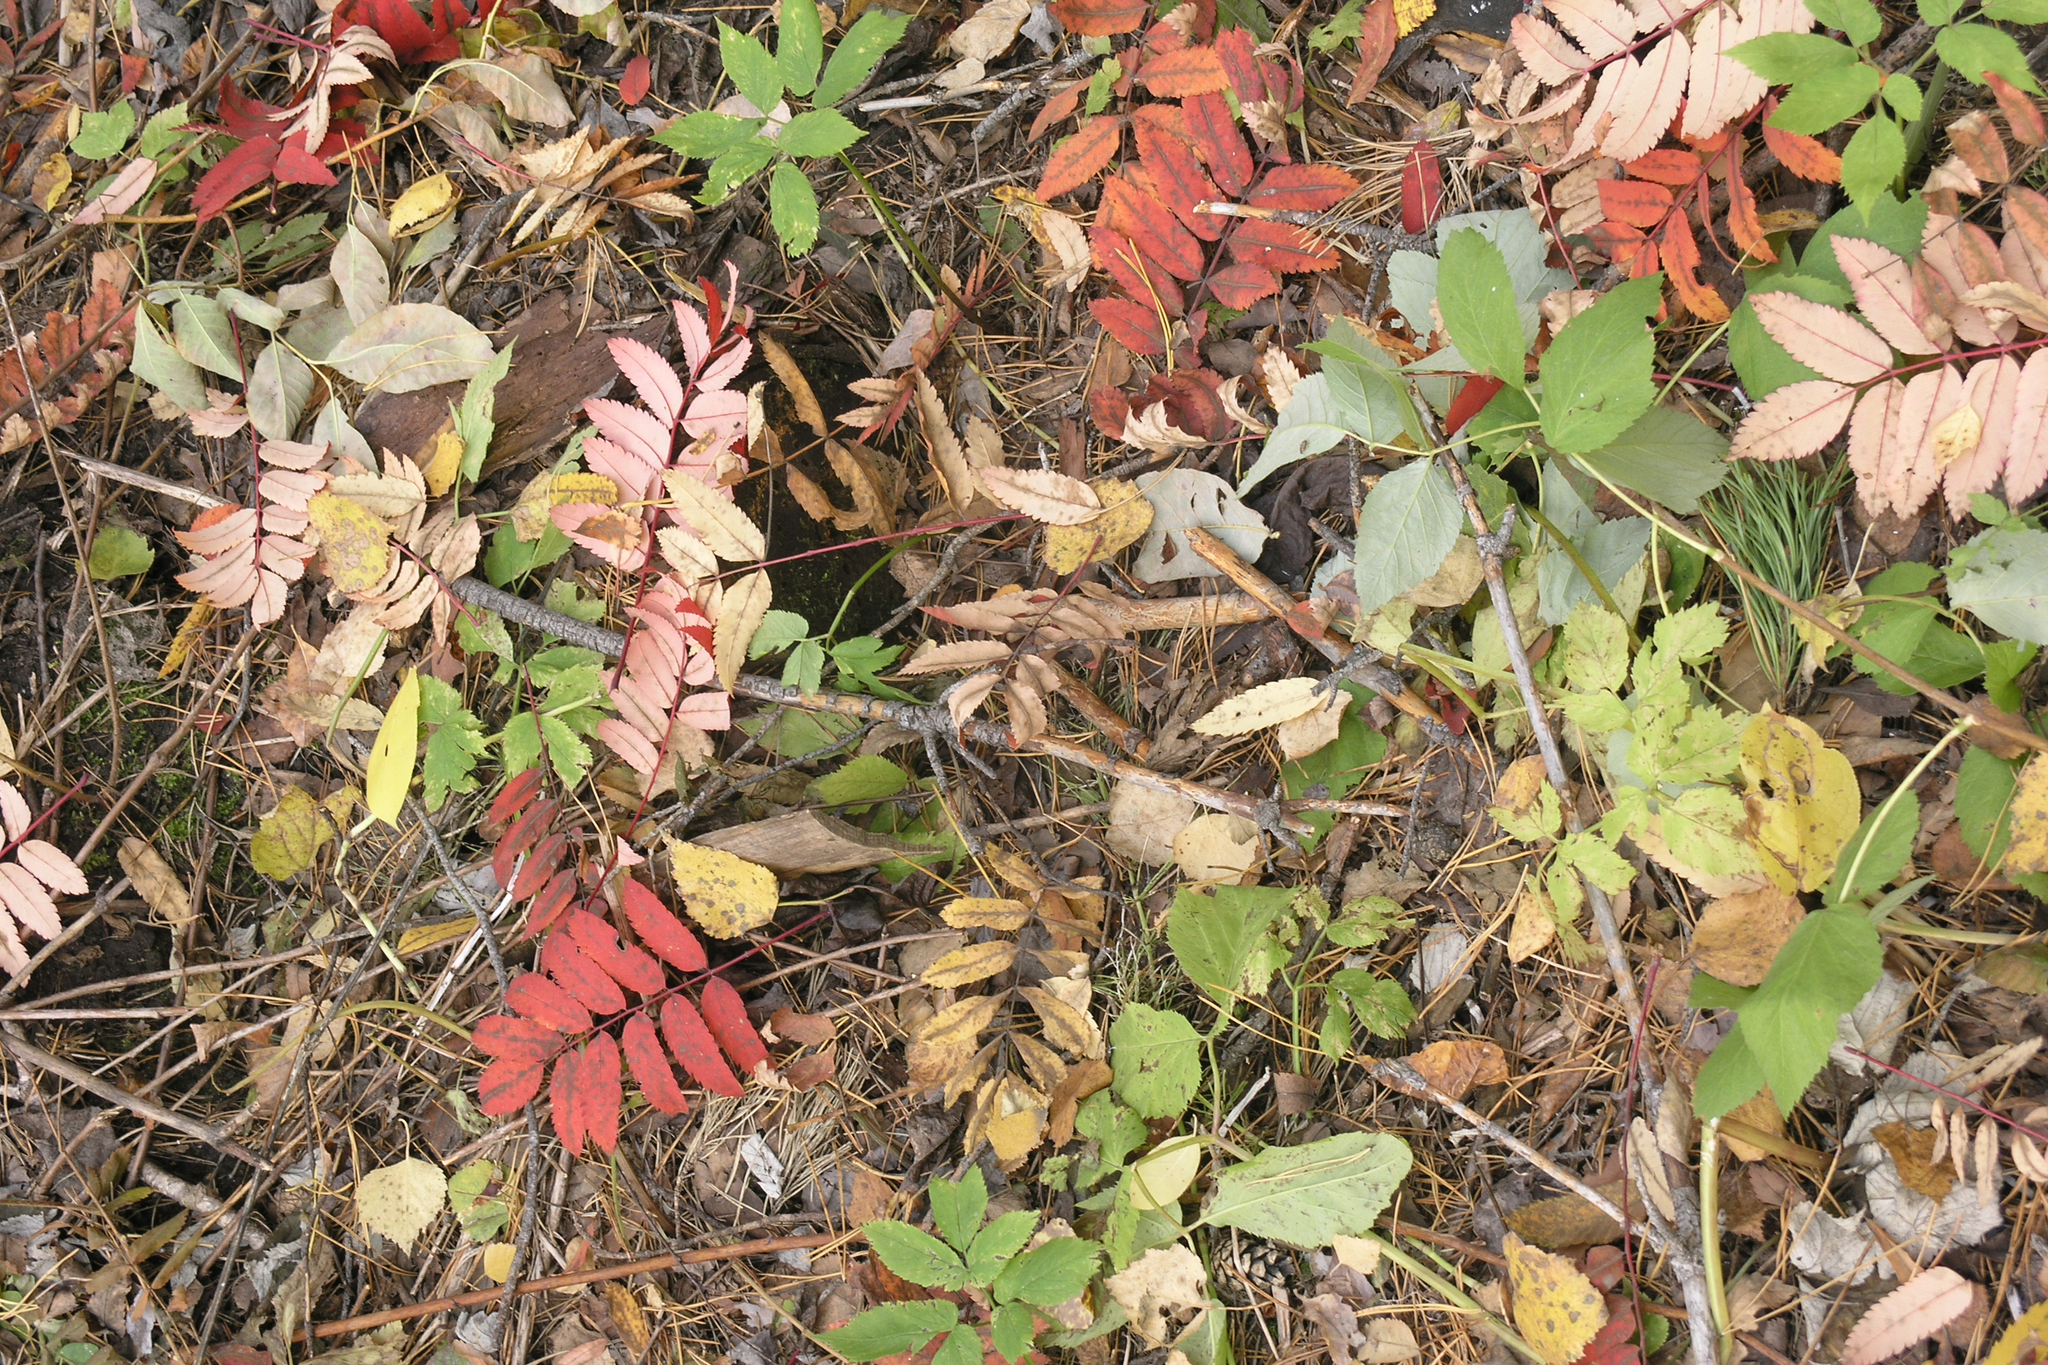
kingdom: Plantae
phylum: Tracheophyta
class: Magnoliopsida
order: Rosales
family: Rosaceae
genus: Sorbus
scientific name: Sorbus aucuparia
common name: Rowan
